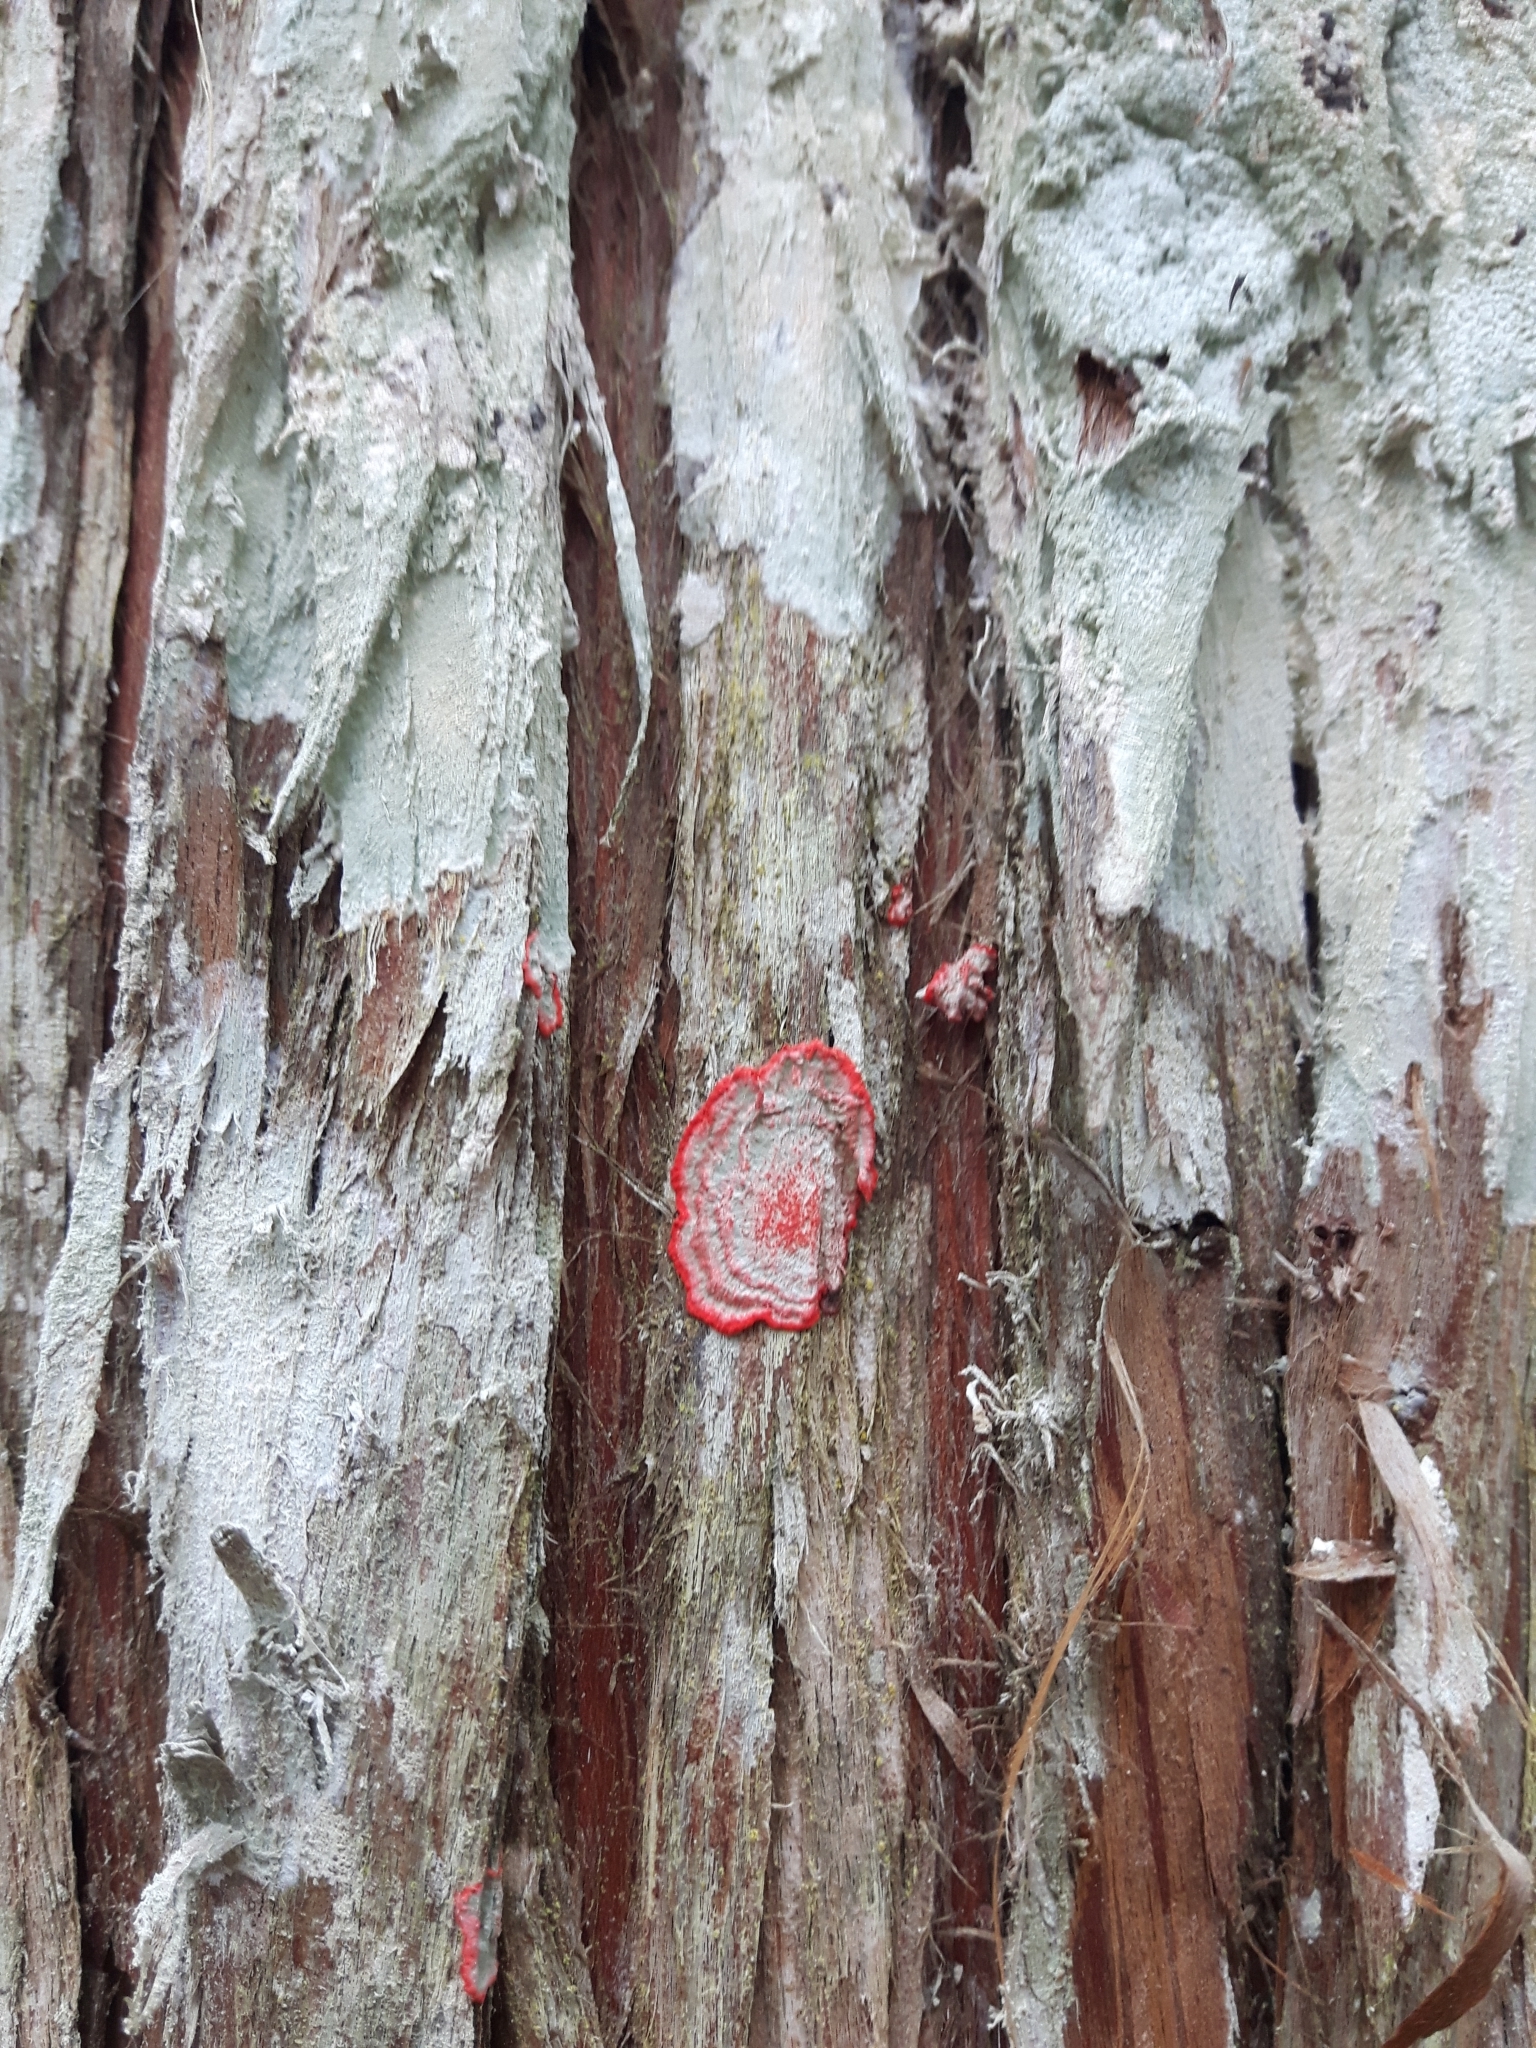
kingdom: Fungi
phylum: Ascomycota
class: Arthoniomycetes
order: Arthoniales
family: Arthoniaceae
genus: Herpothallon
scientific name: Herpothallon rubrocinctum
